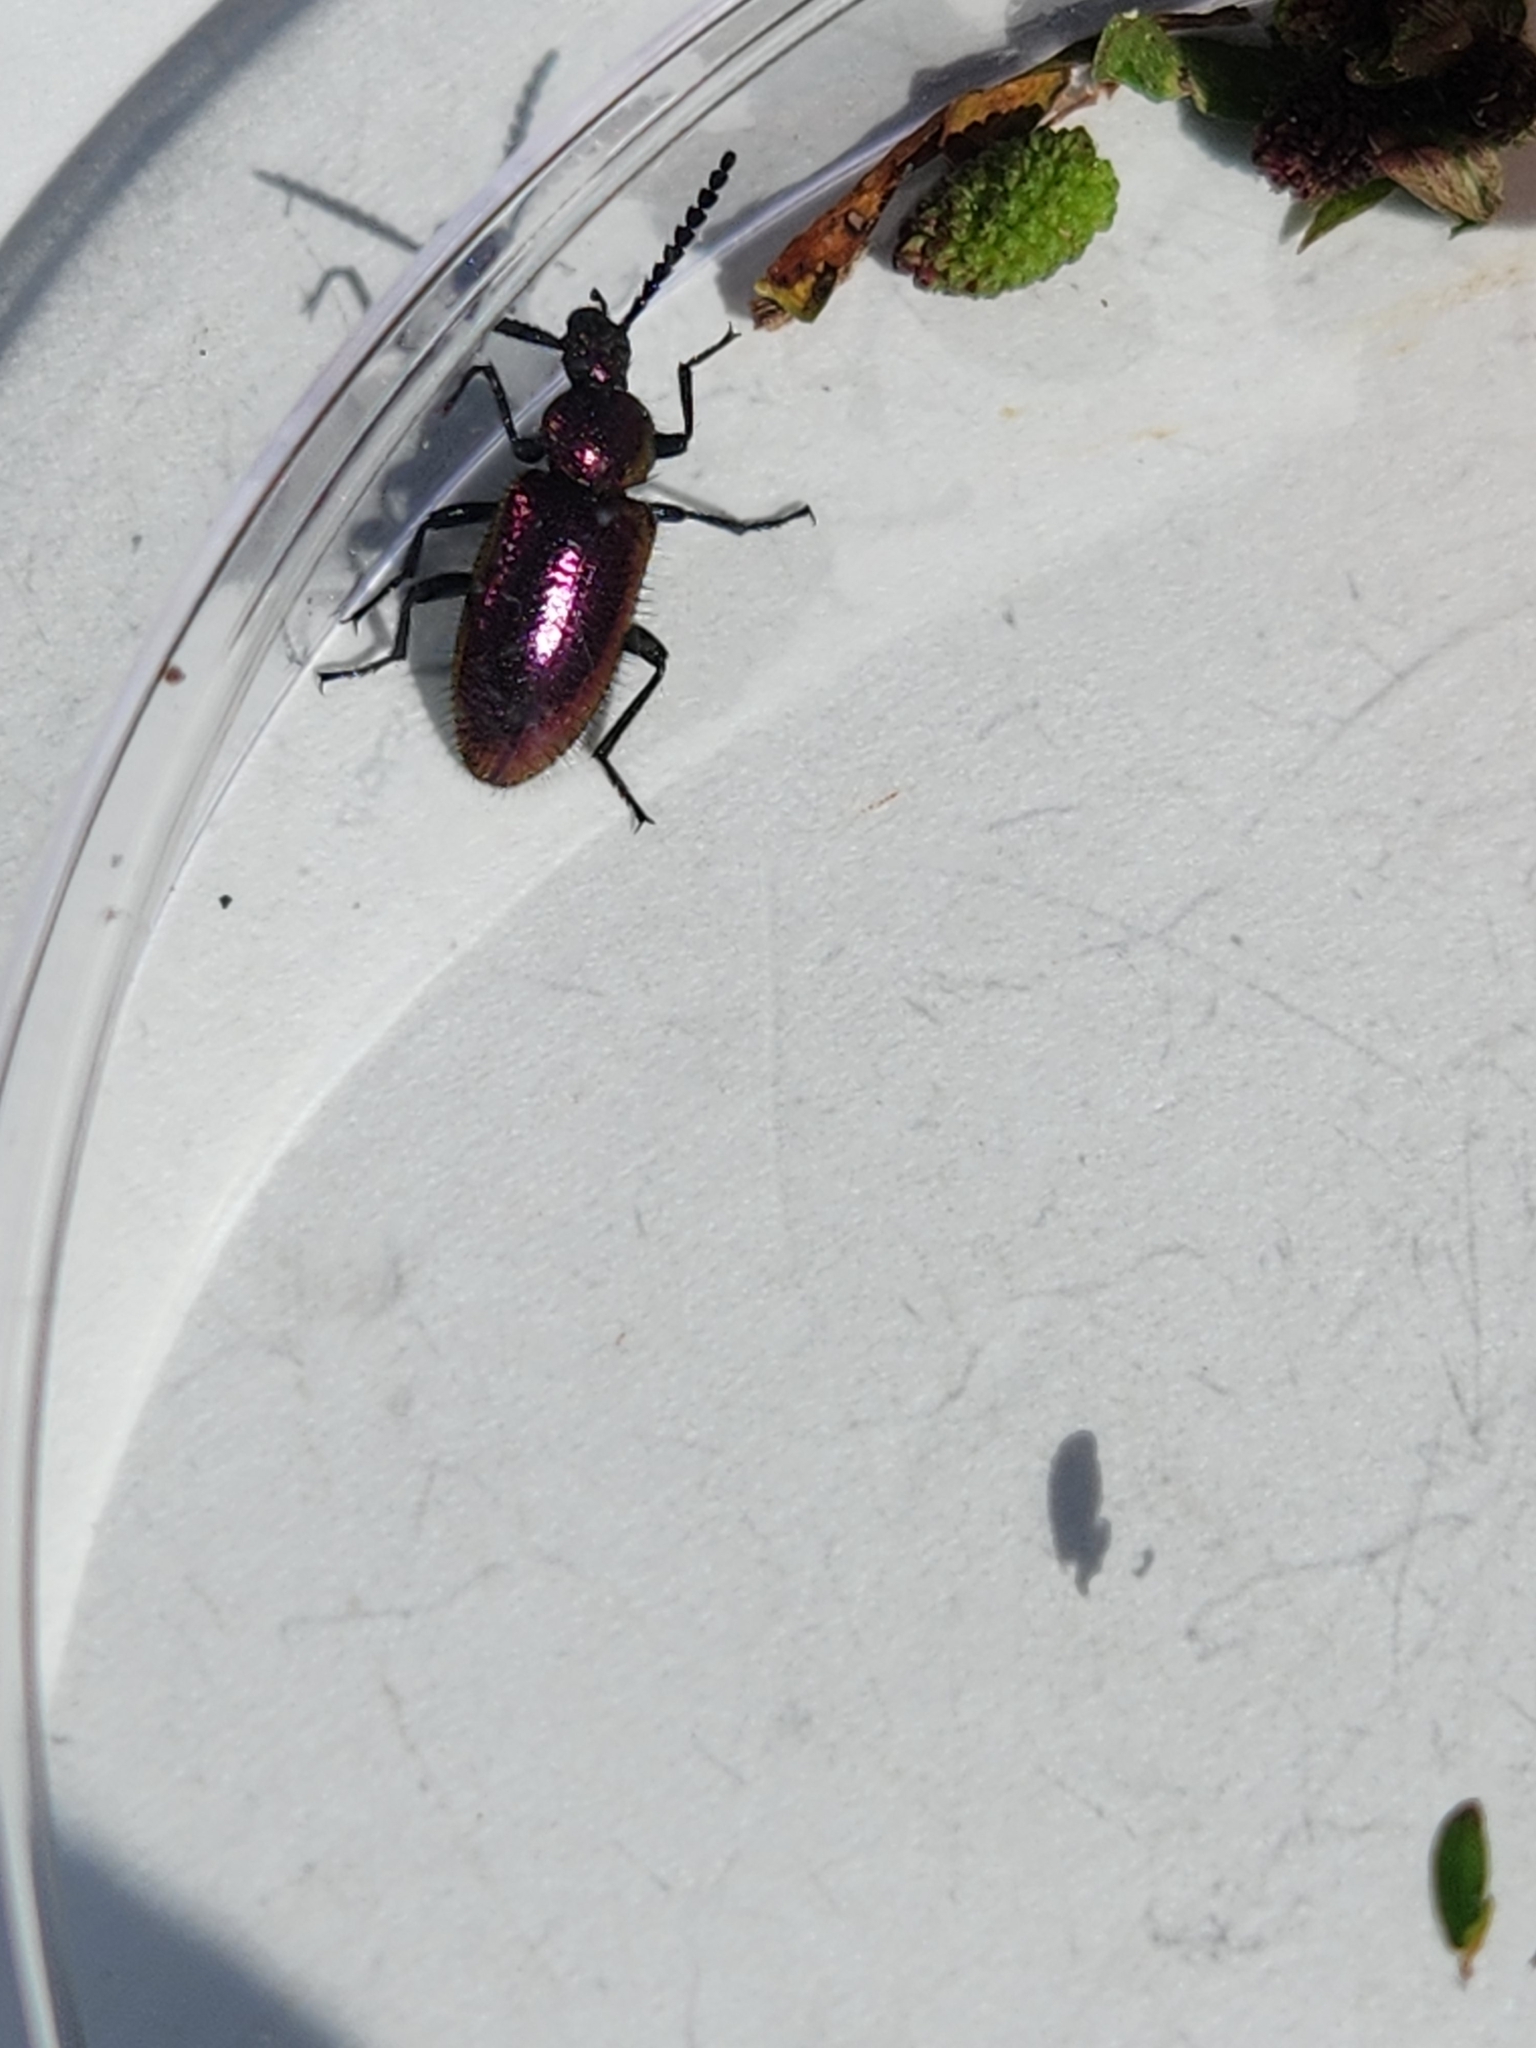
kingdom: Animalia
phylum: Arthropoda
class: Insecta
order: Coleoptera
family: Tenebrionidae
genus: Xystropus
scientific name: Xystropus californicus
